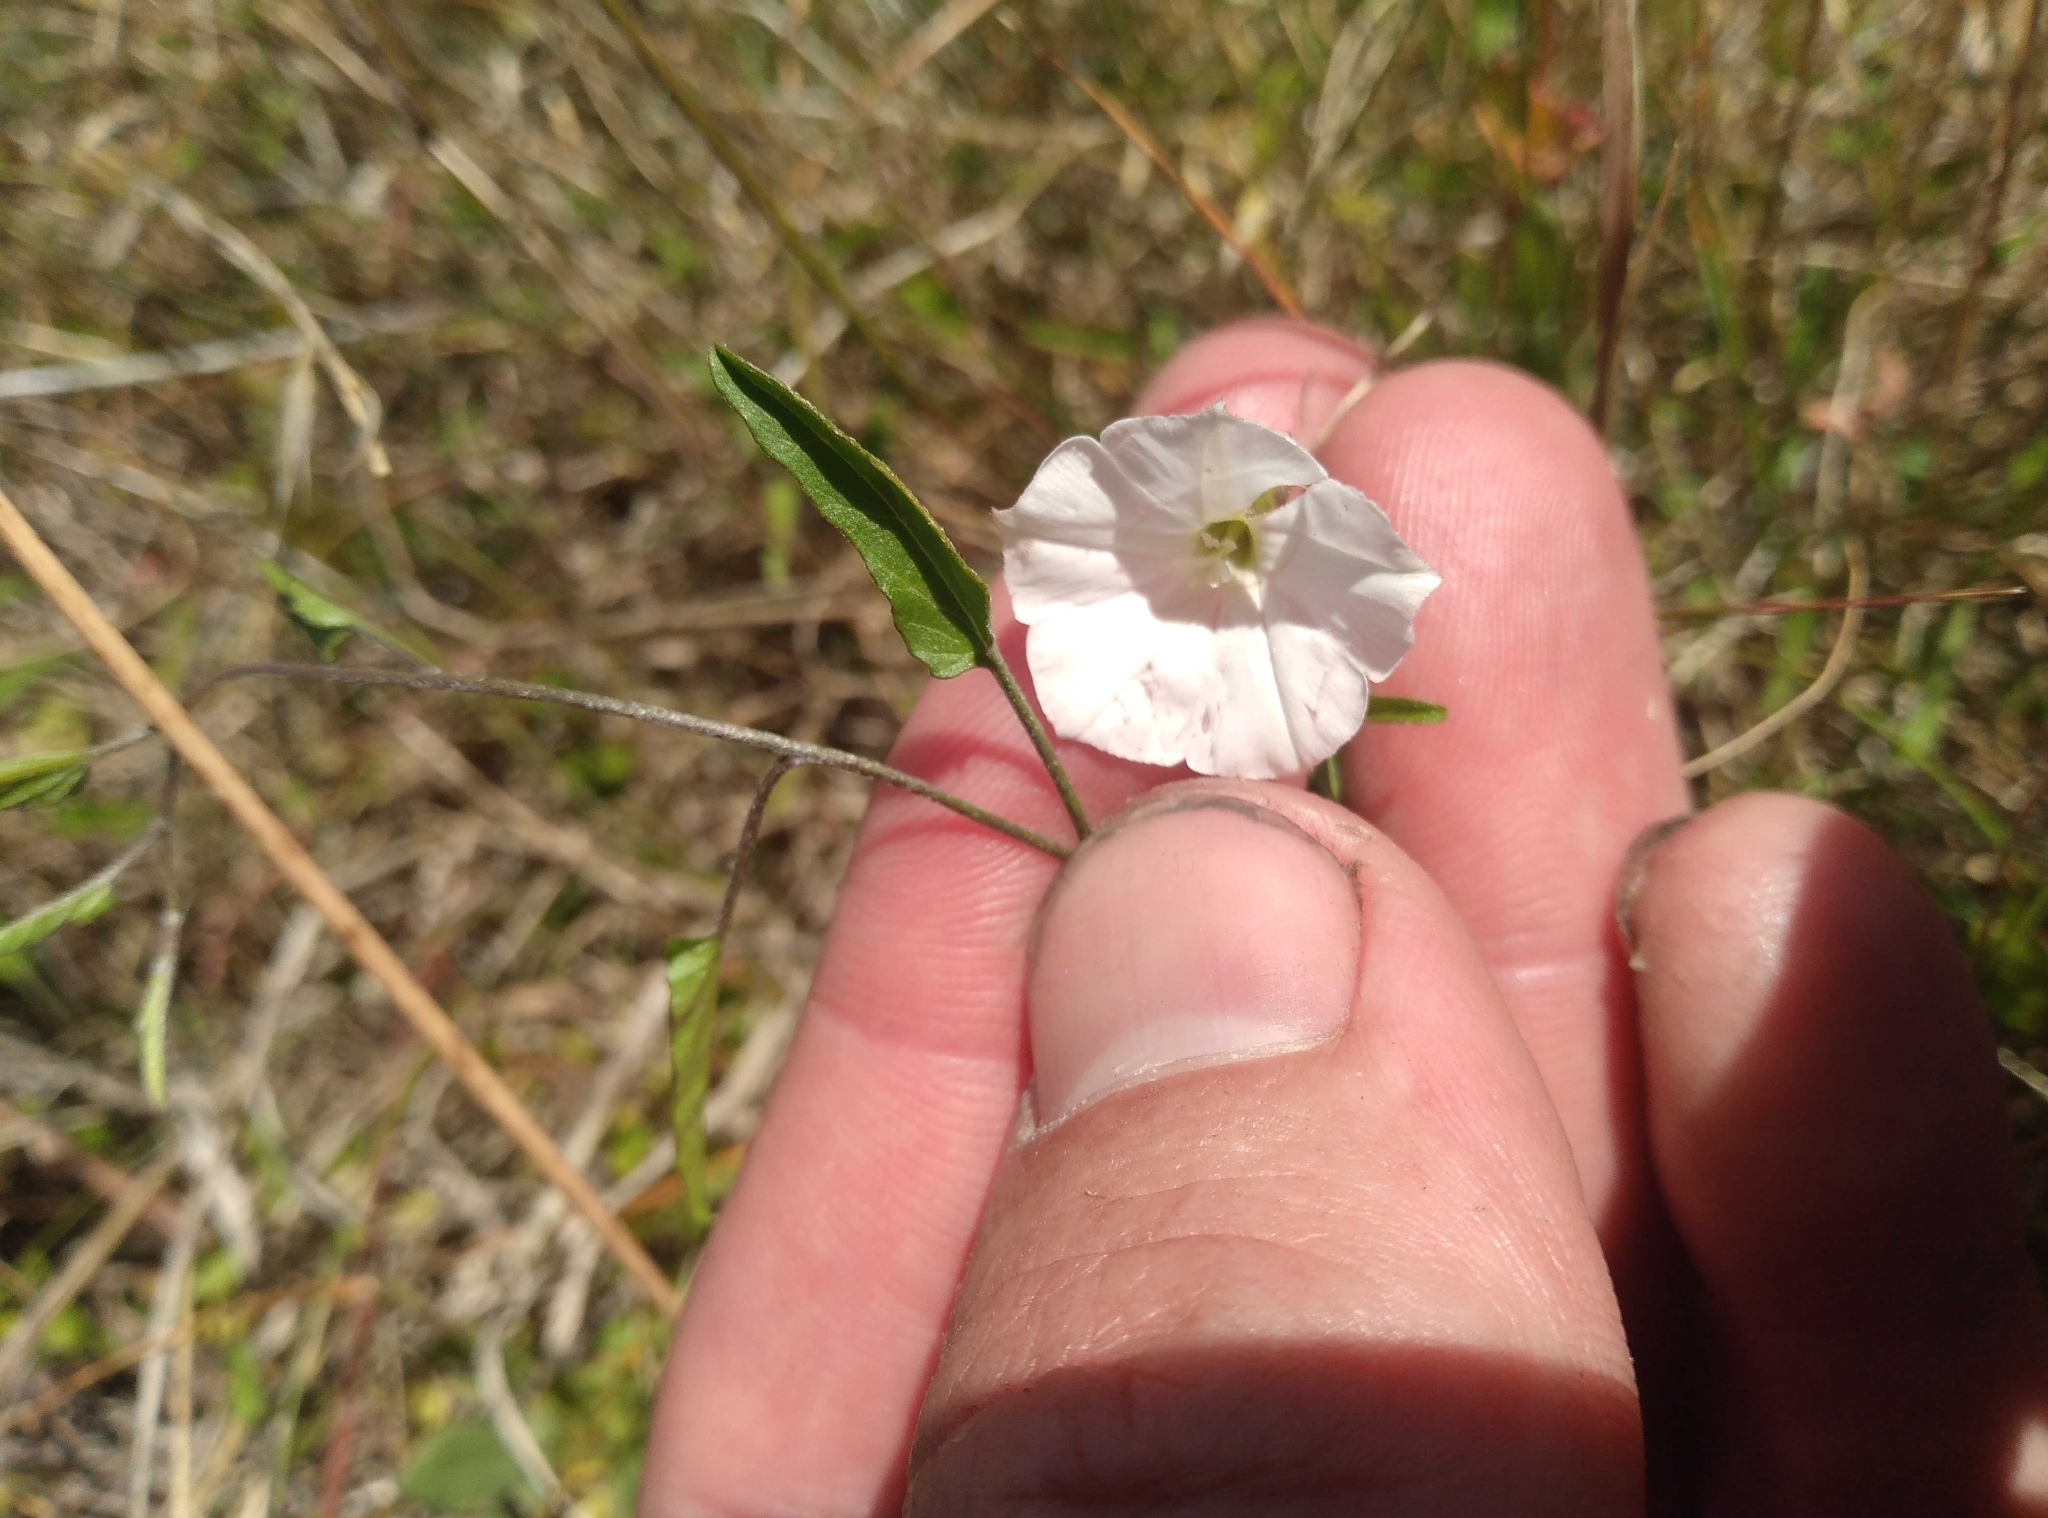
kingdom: Plantae
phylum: Tracheophyta
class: Magnoliopsida
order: Solanales
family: Convolvulaceae
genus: Convolvulus
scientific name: Convolvulus waitaha
